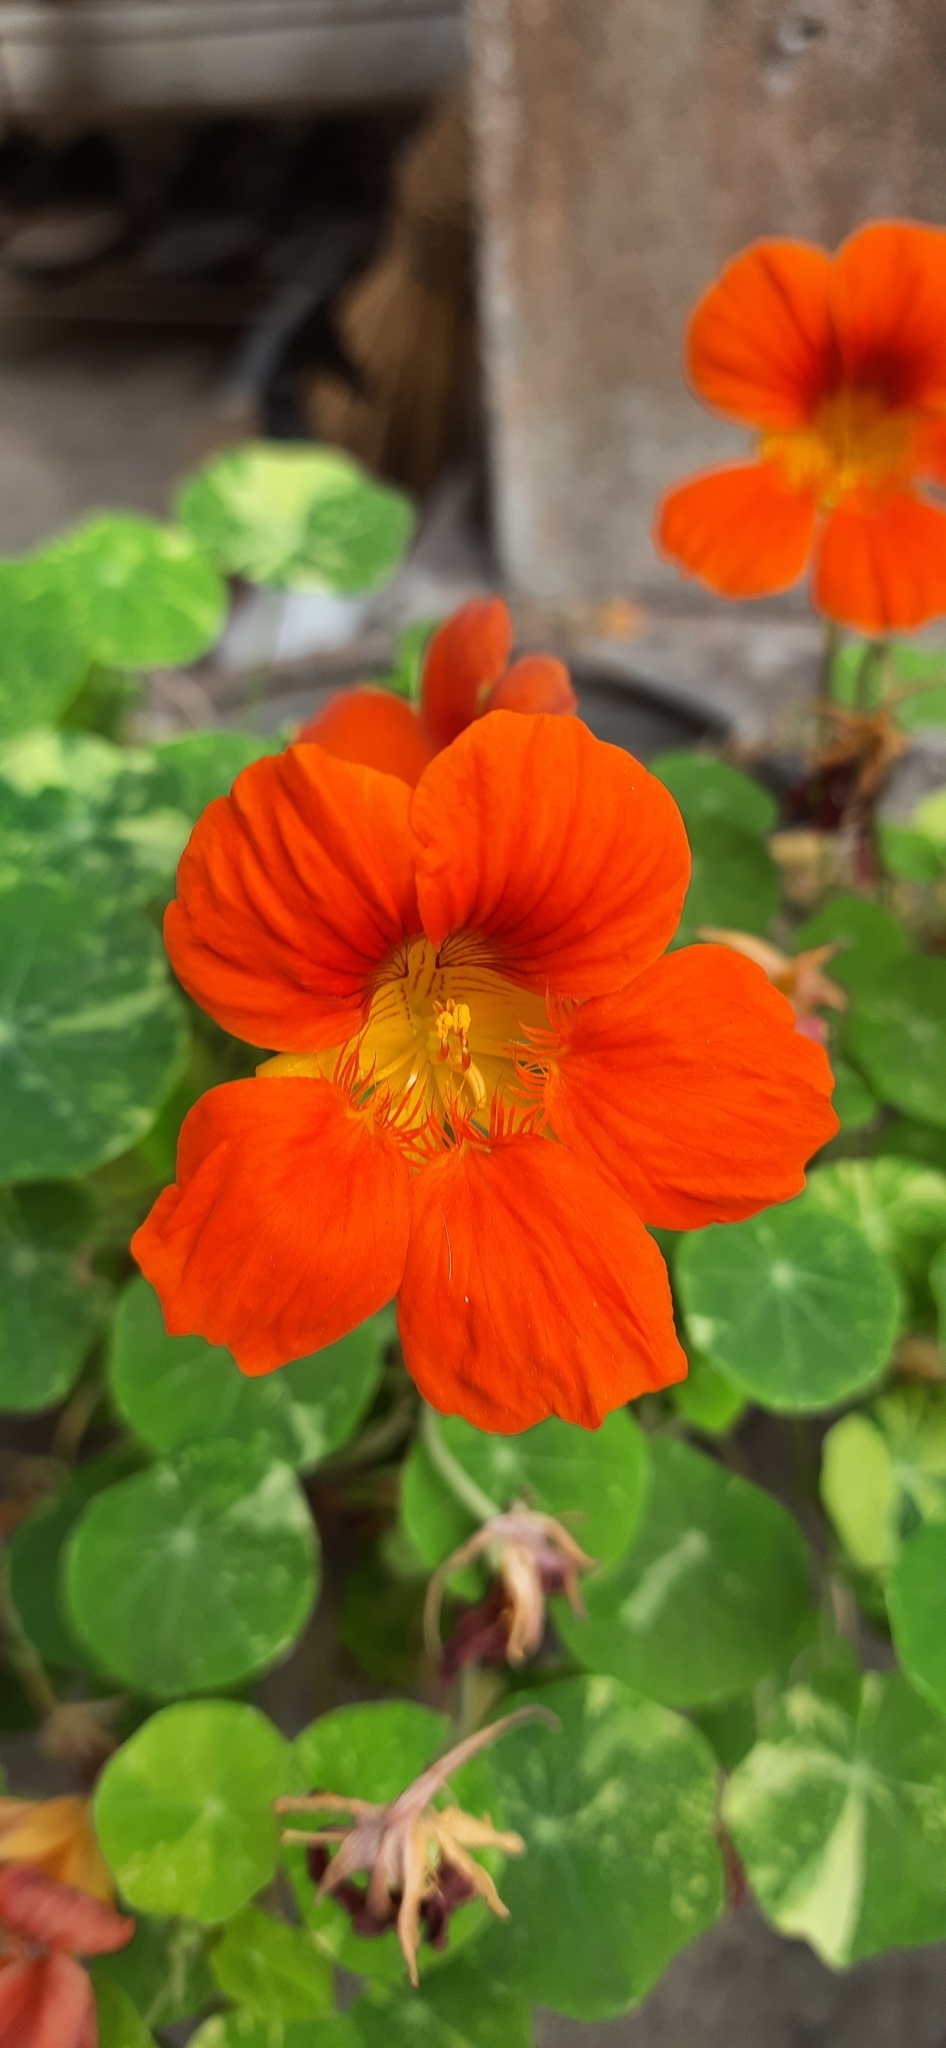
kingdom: Plantae
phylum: Tracheophyta
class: Magnoliopsida
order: Brassicales
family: Tropaeolaceae
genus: Tropaeolum
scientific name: Tropaeolum majus
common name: Nasturtium
